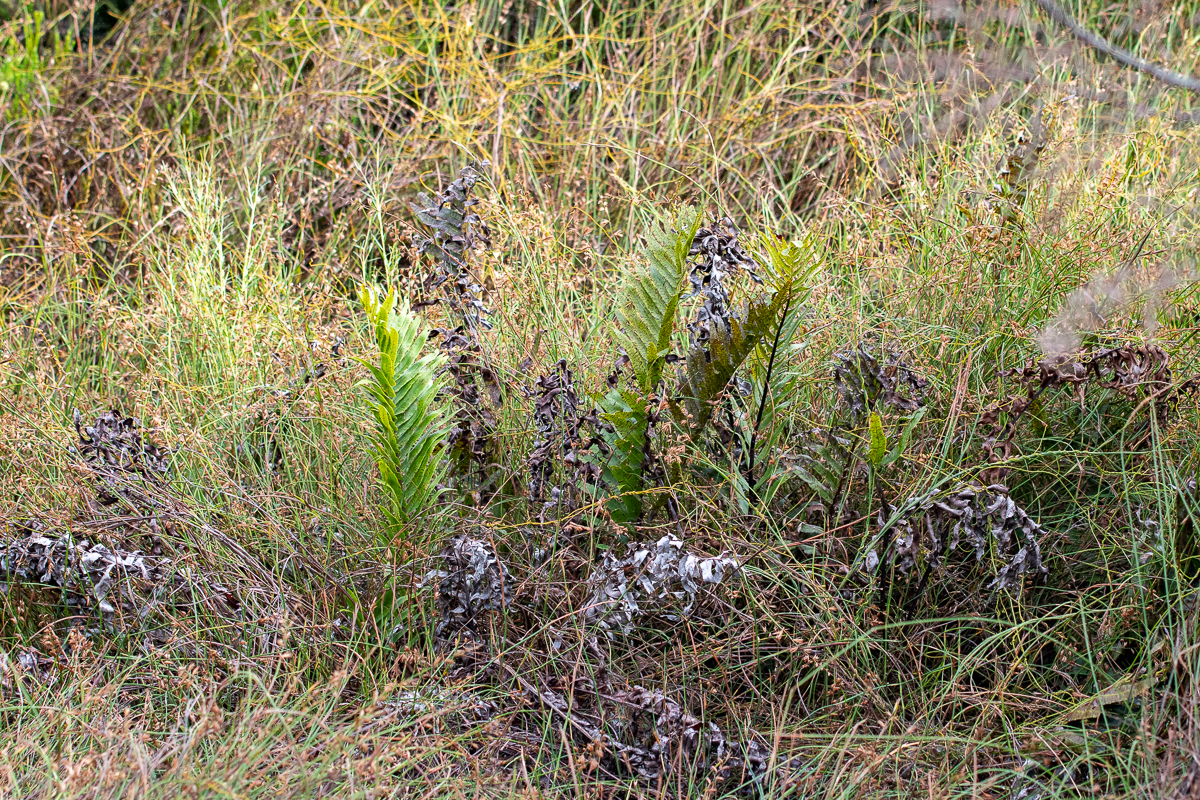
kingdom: Plantae
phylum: Tracheophyta
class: Polypodiopsida
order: Osmundales
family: Osmundaceae
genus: Todea
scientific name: Todea barbara
